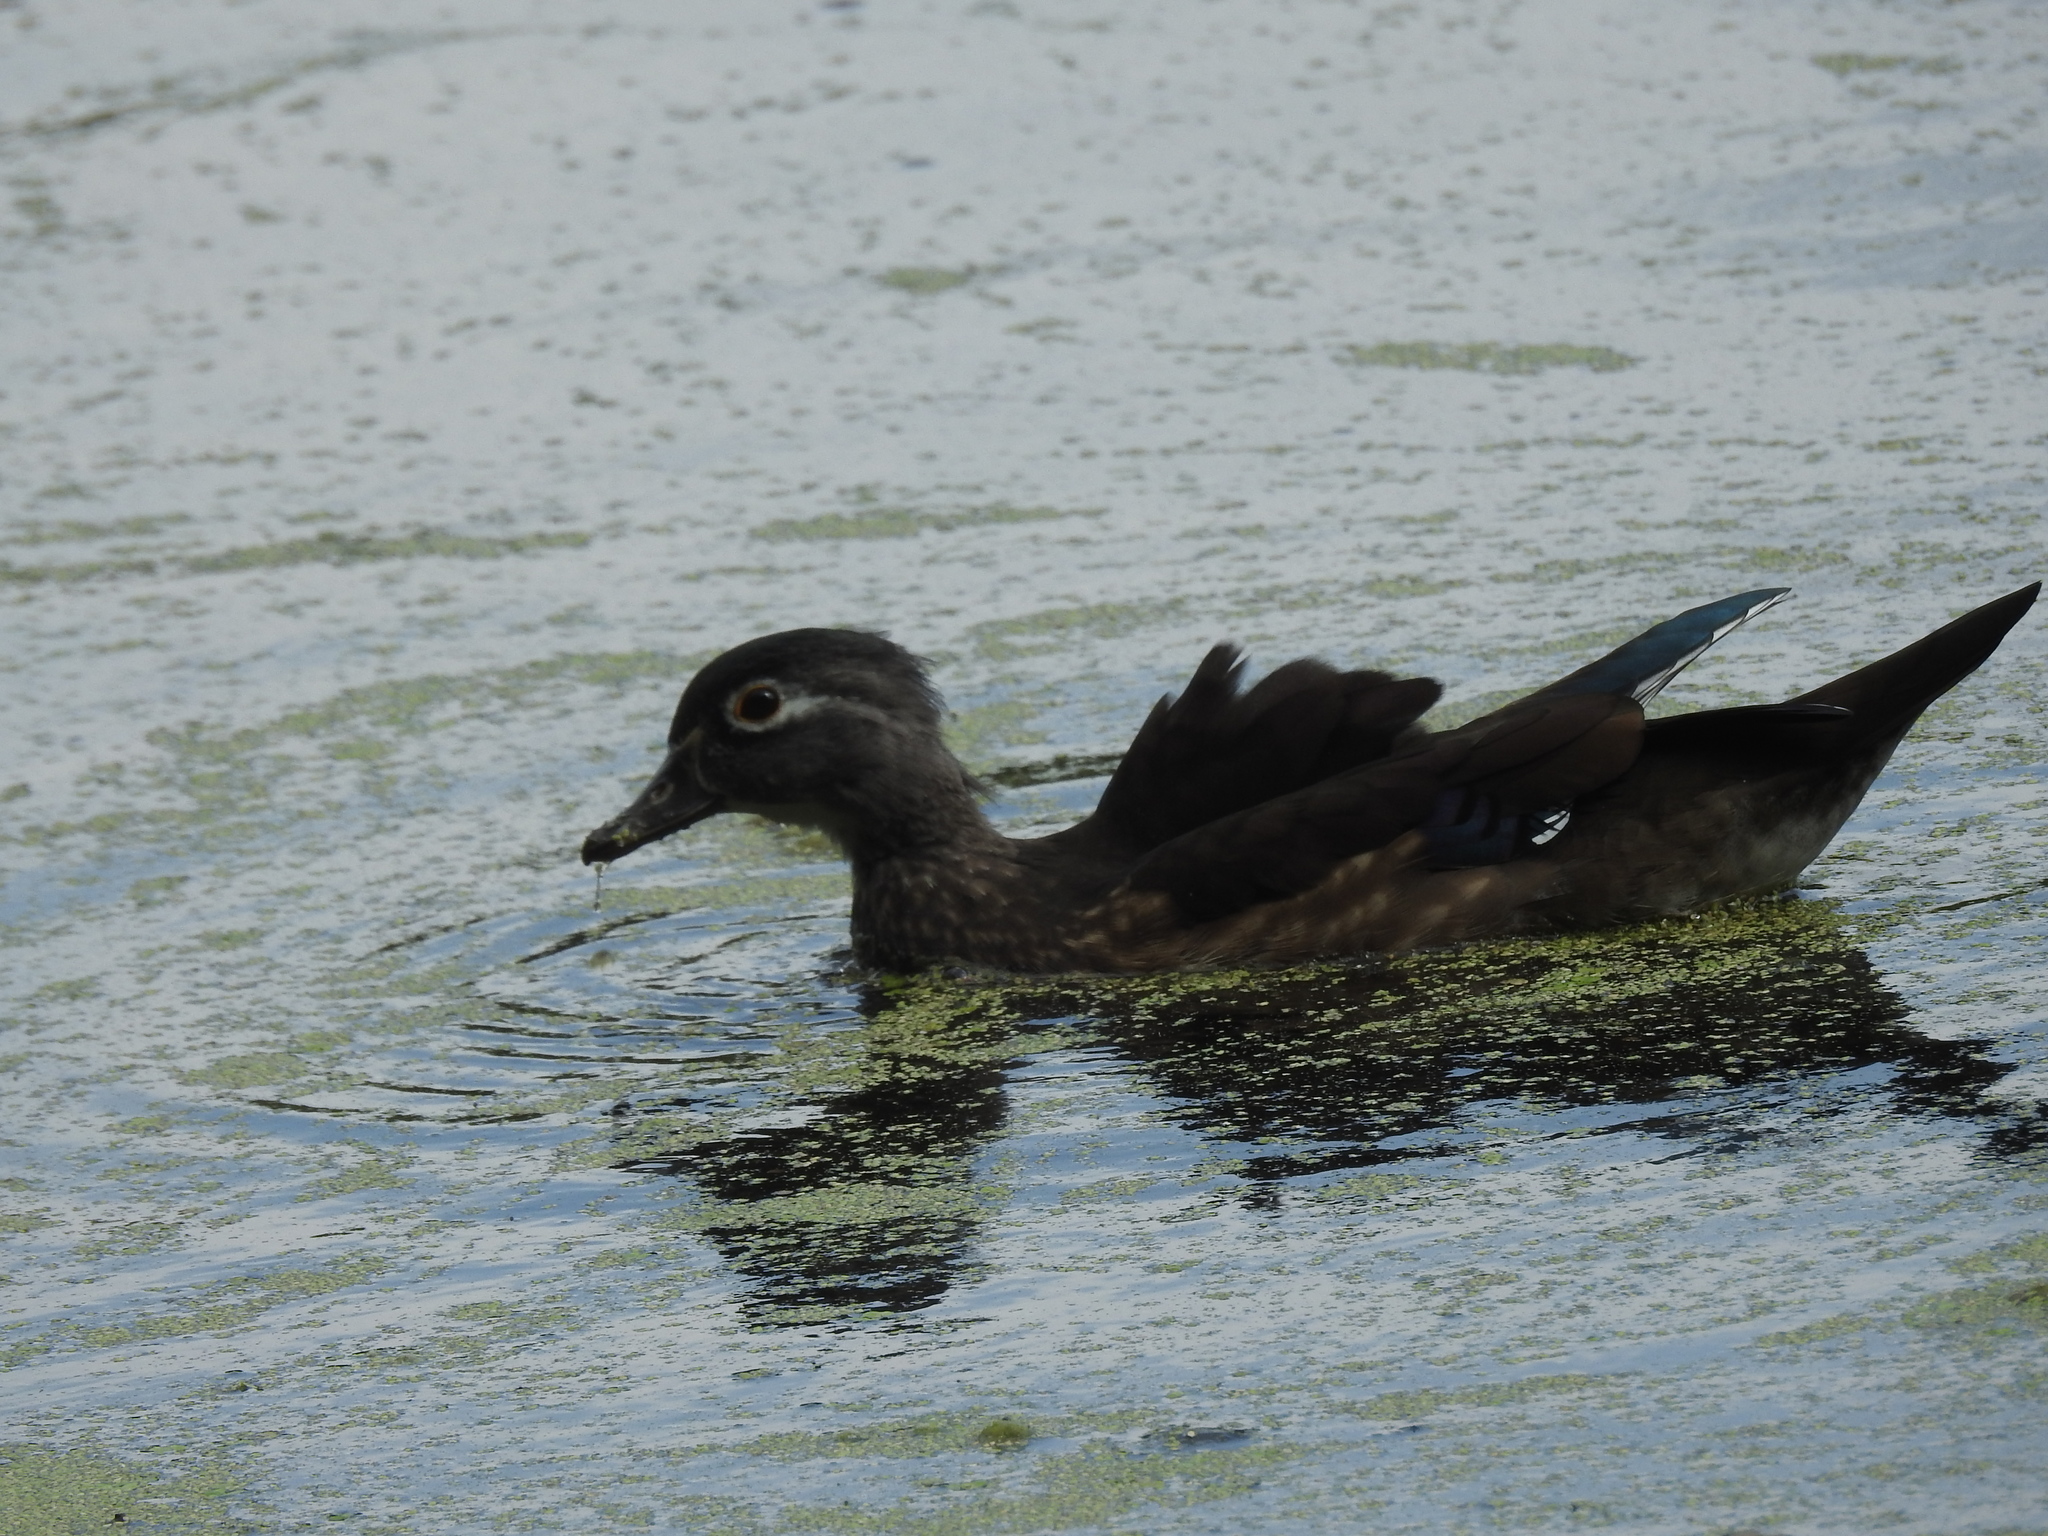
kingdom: Animalia
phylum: Chordata
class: Aves
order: Anseriformes
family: Anatidae
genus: Aix
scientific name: Aix sponsa
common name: Wood duck
